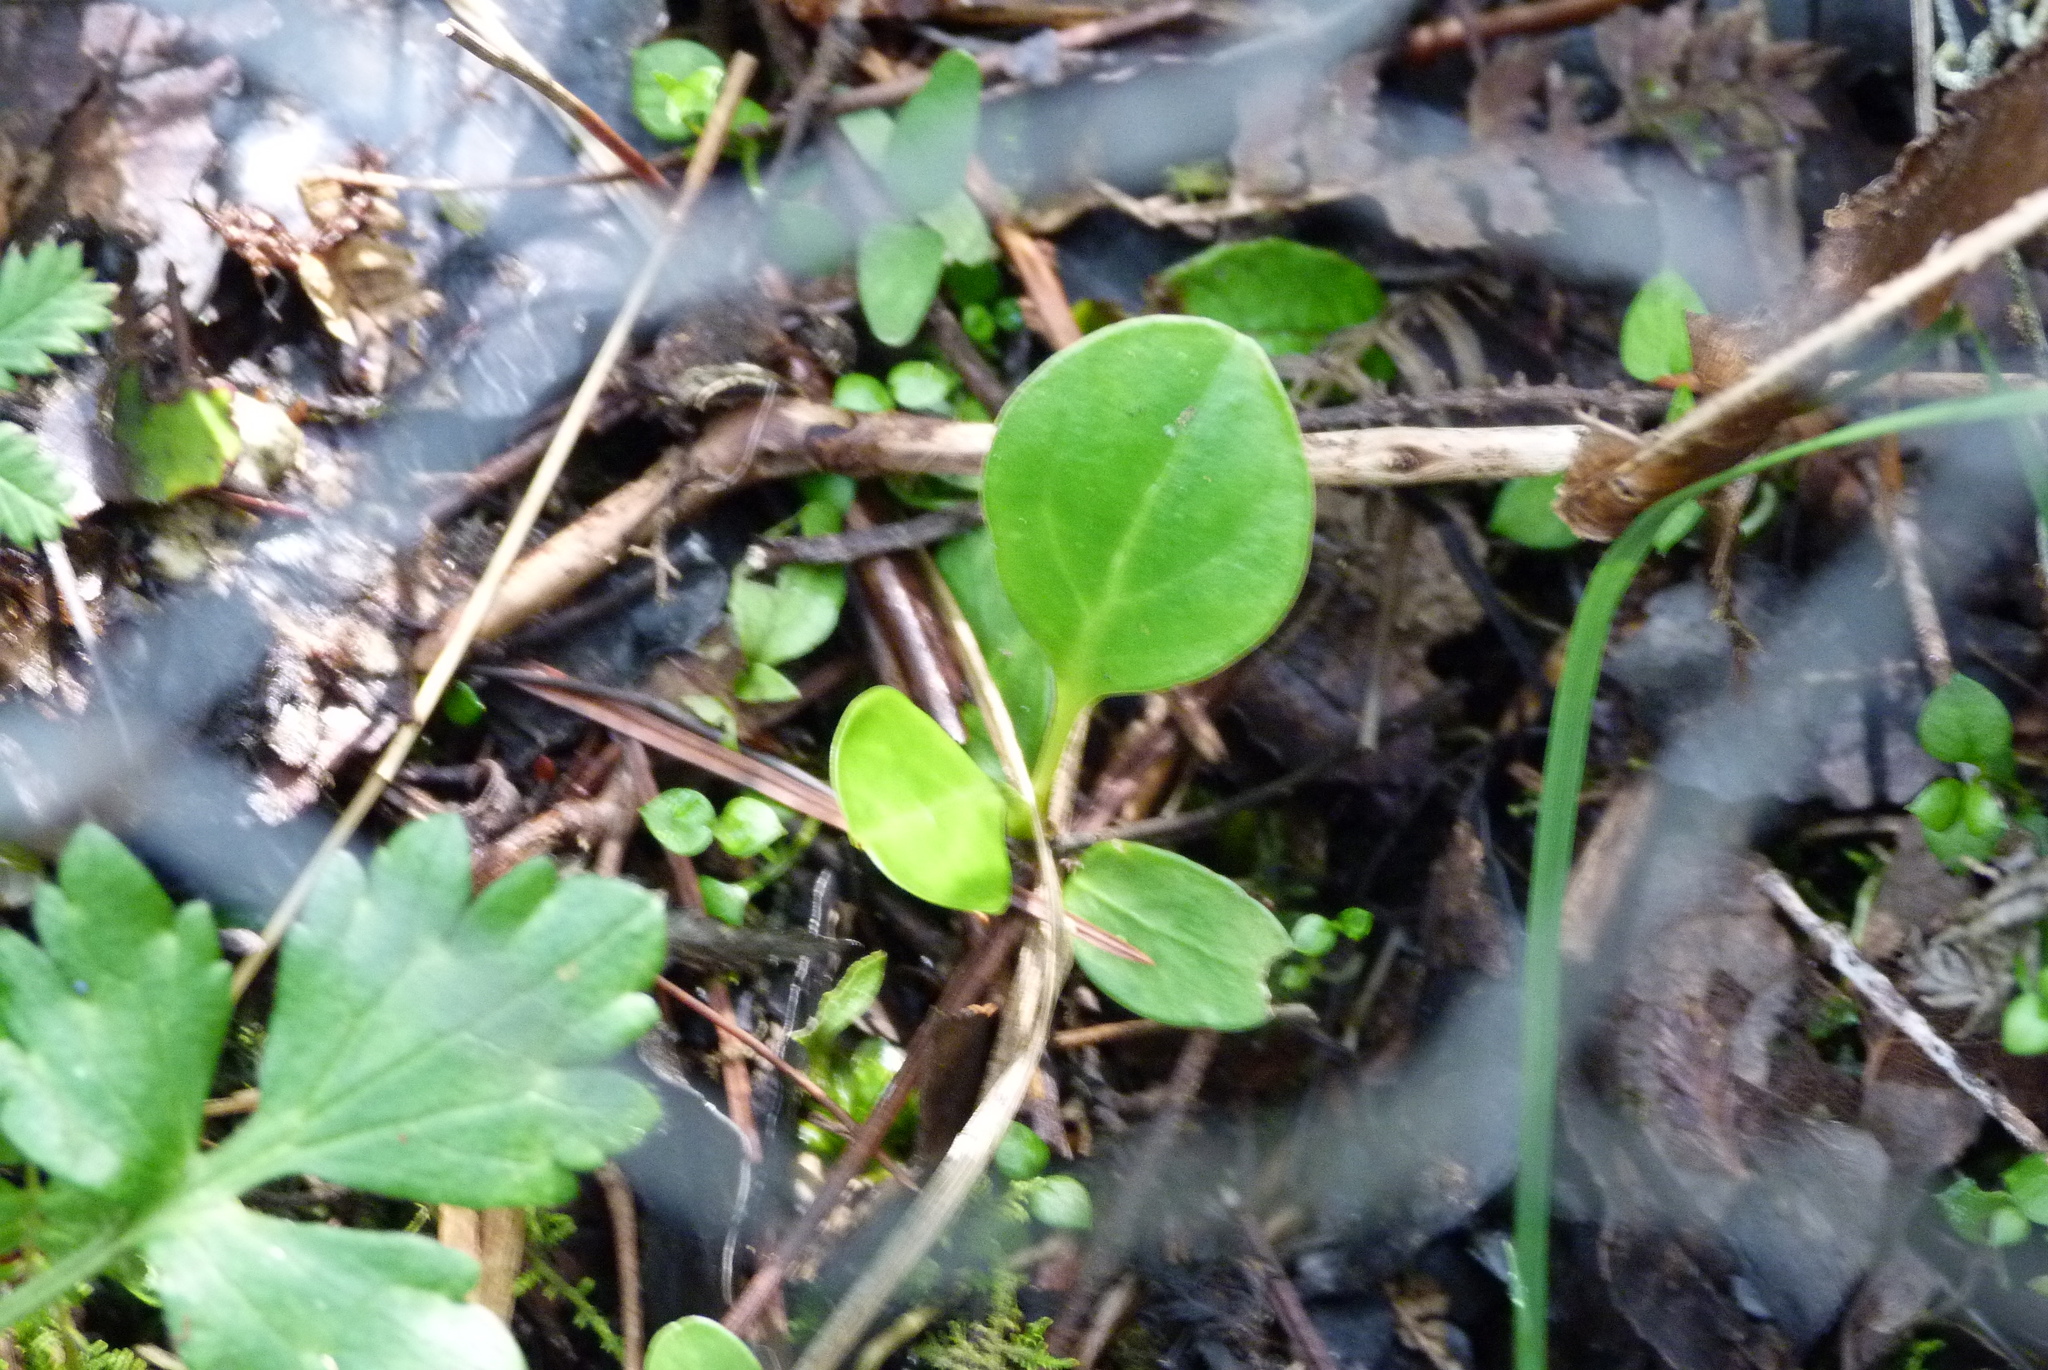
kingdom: Plantae
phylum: Tracheophyta
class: Magnoliopsida
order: Apiales
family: Griseliniaceae
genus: Griselinia
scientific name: Griselinia littoralis
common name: New zealand broadleaf
